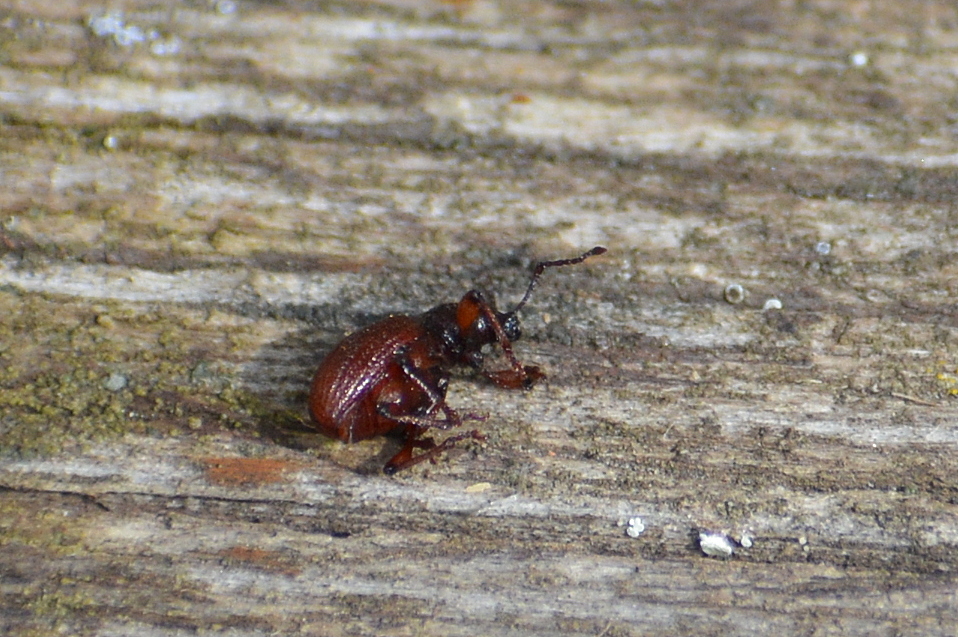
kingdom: Animalia
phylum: Arthropoda
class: Insecta
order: Coleoptera
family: Curculionidae
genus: Otiorhynchus
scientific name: Otiorhynchus ovatus
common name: Strawberry root weevil
